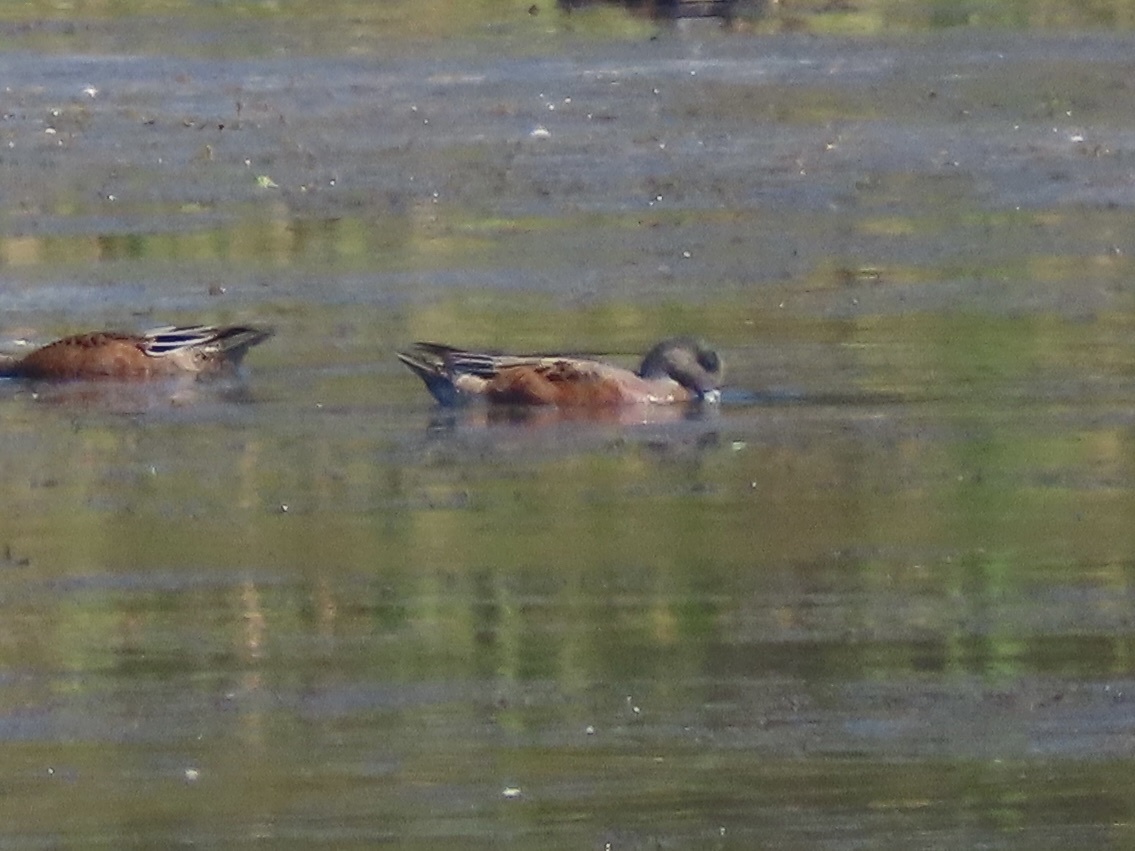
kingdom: Animalia
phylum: Chordata
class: Aves
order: Anseriformes
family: Anatidae
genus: Mareca
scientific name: Mareca americana
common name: American wigeon
